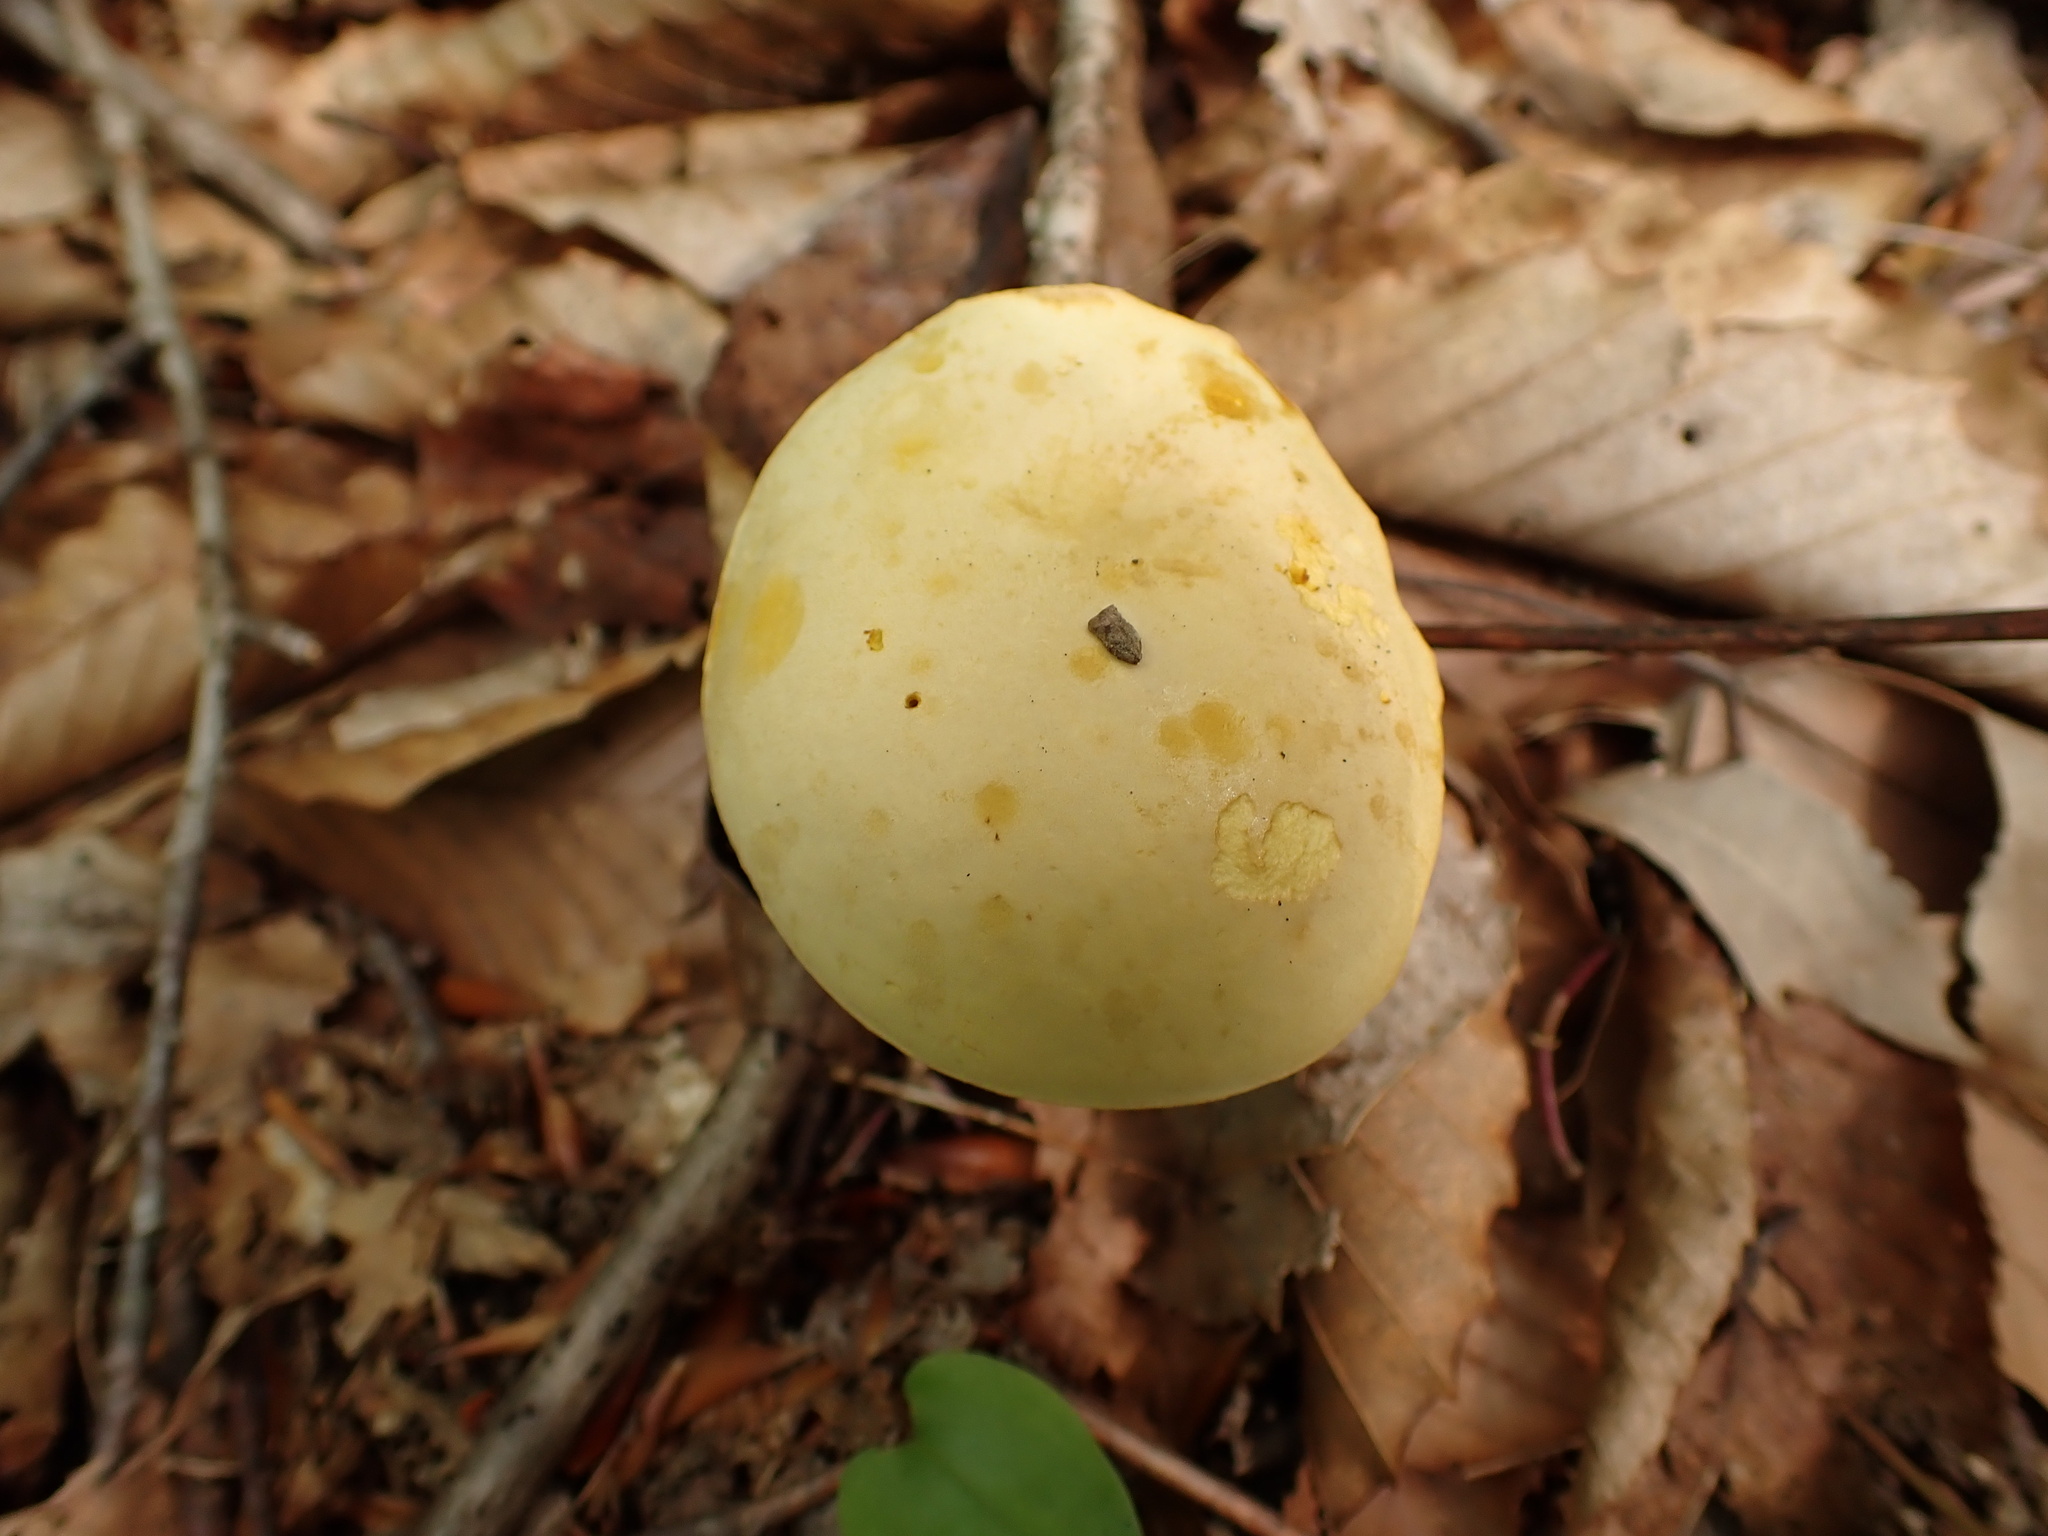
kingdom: Fungi
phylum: Basidiomycota
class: Agaricomycetes
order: Boletales
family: Boletaceae
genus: Retiboletus
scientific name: Retiboletus ornatipes
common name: Ornate-stalked bolete
